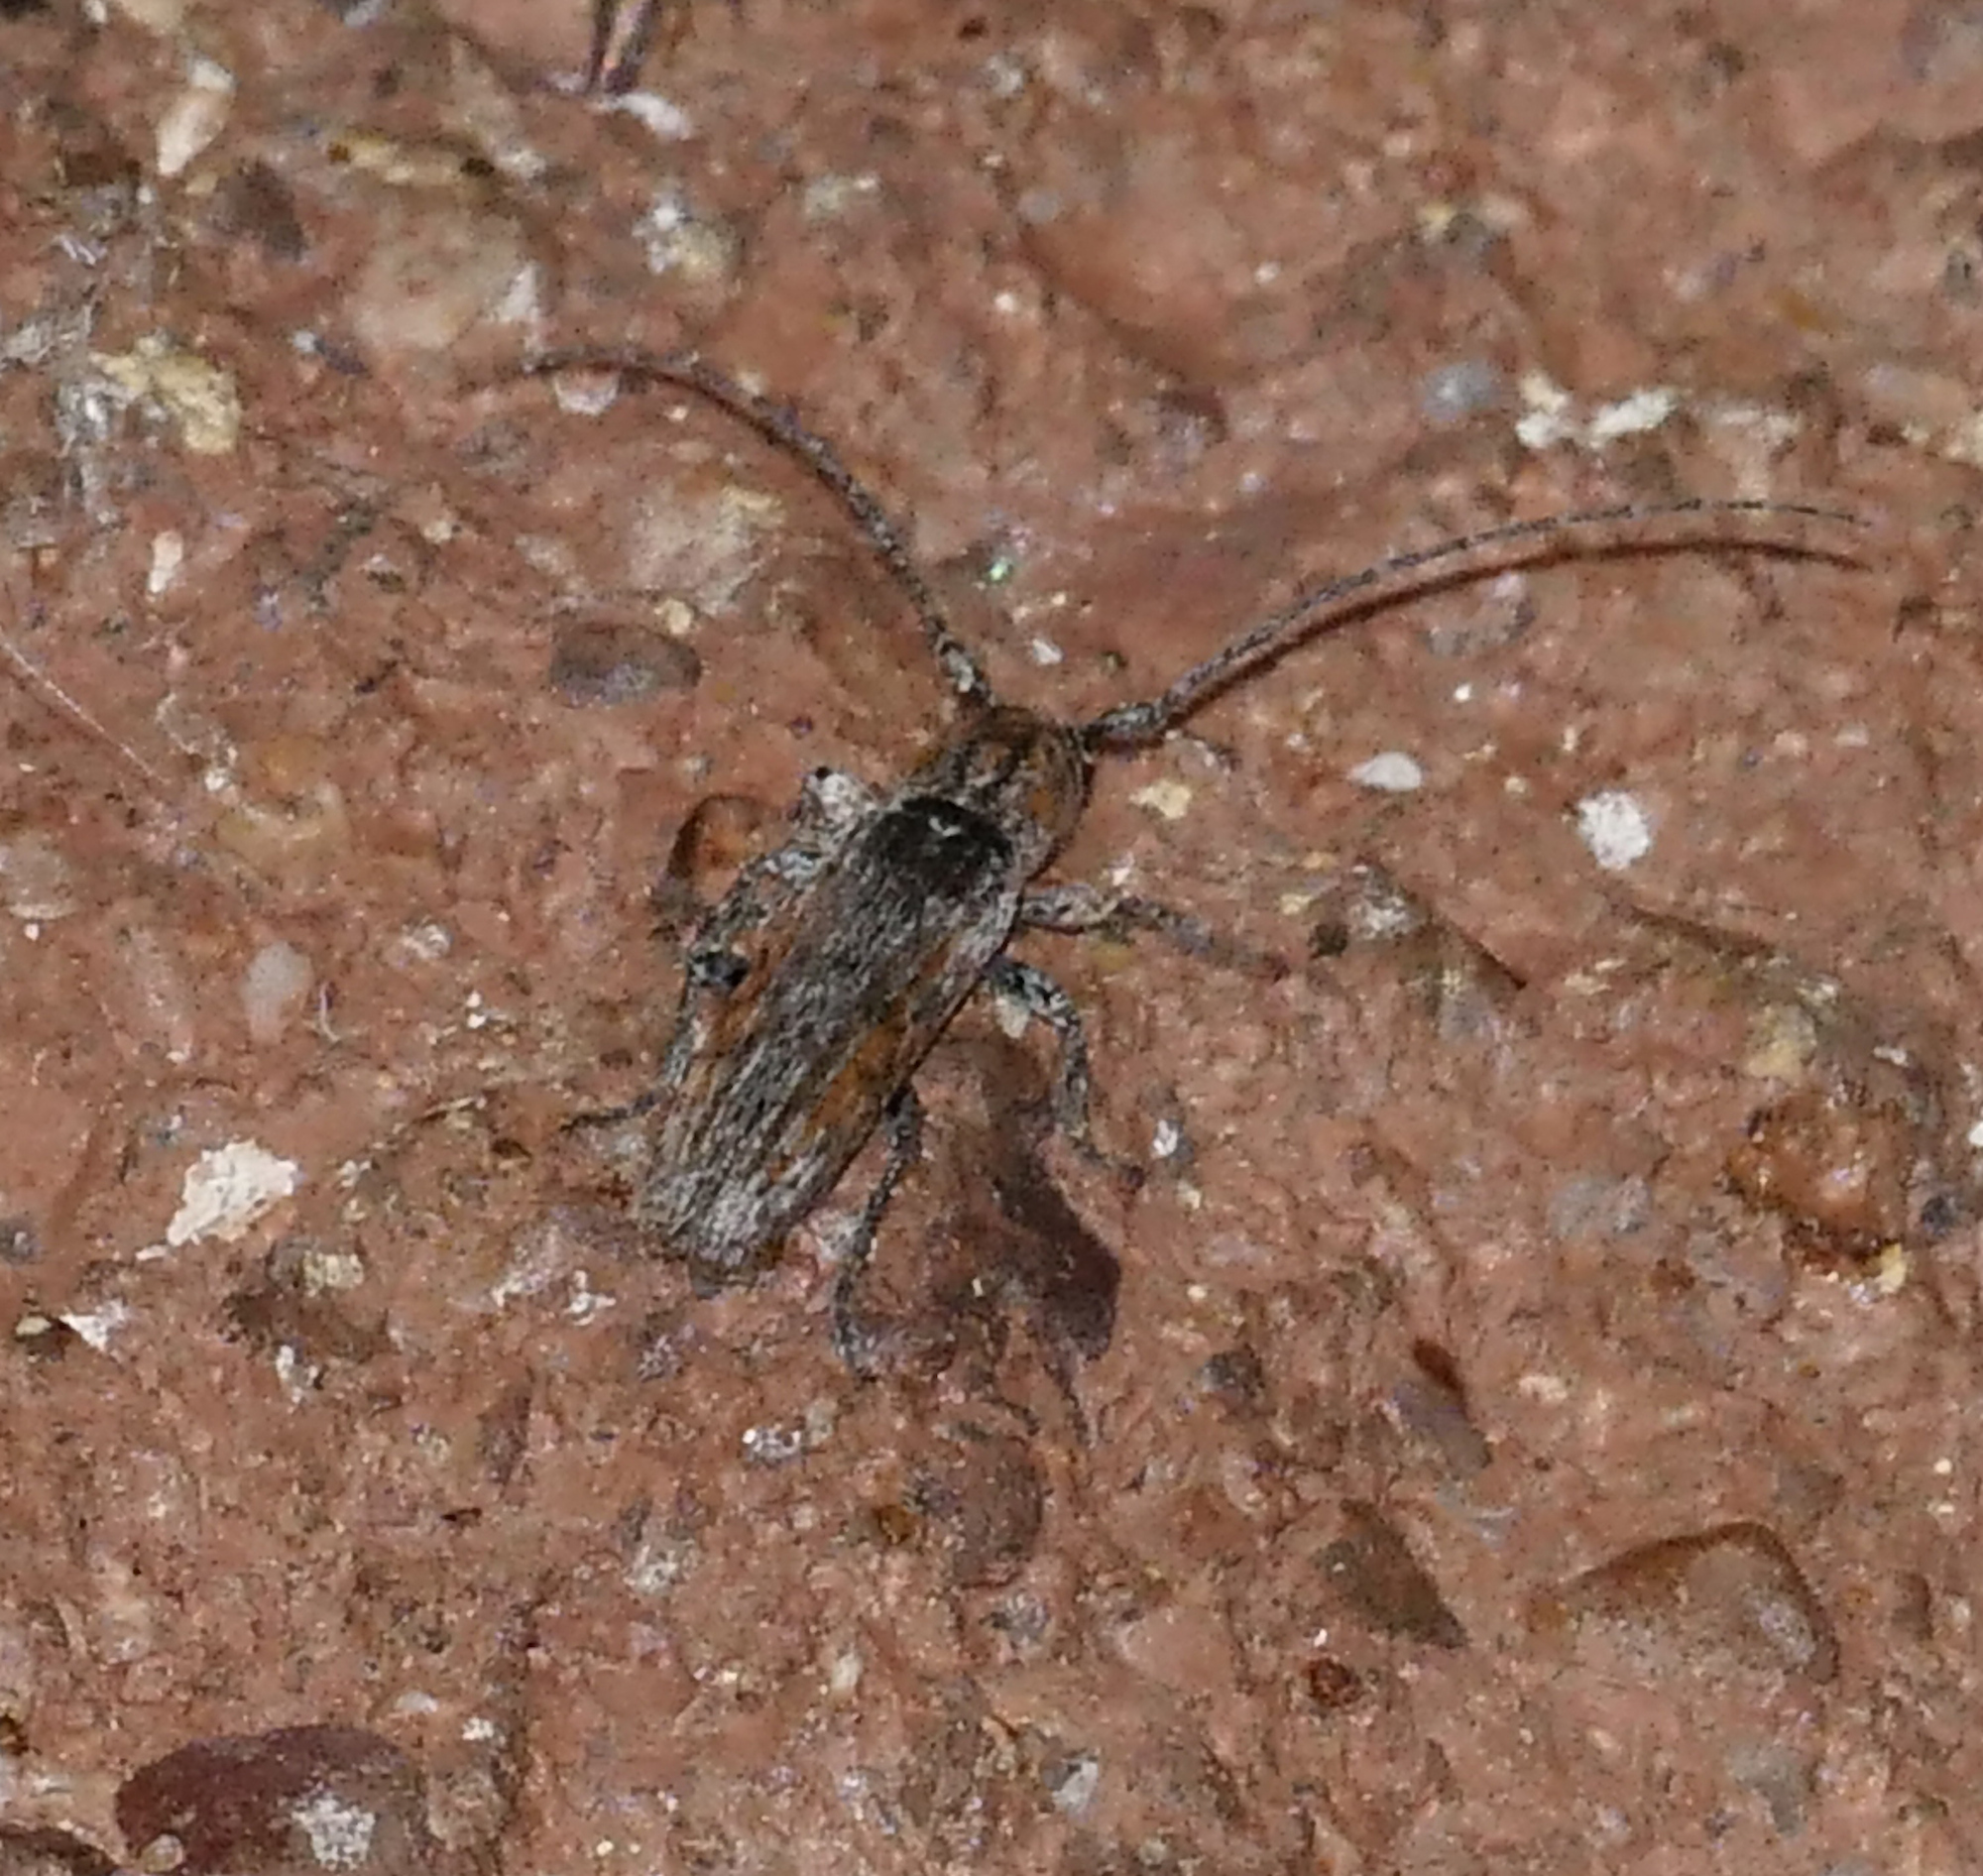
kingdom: Animalia
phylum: Arthropoda
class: Insecta
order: Coleoptera
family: Cerambycidae
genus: Ataxia
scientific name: Ataxia arizonica
